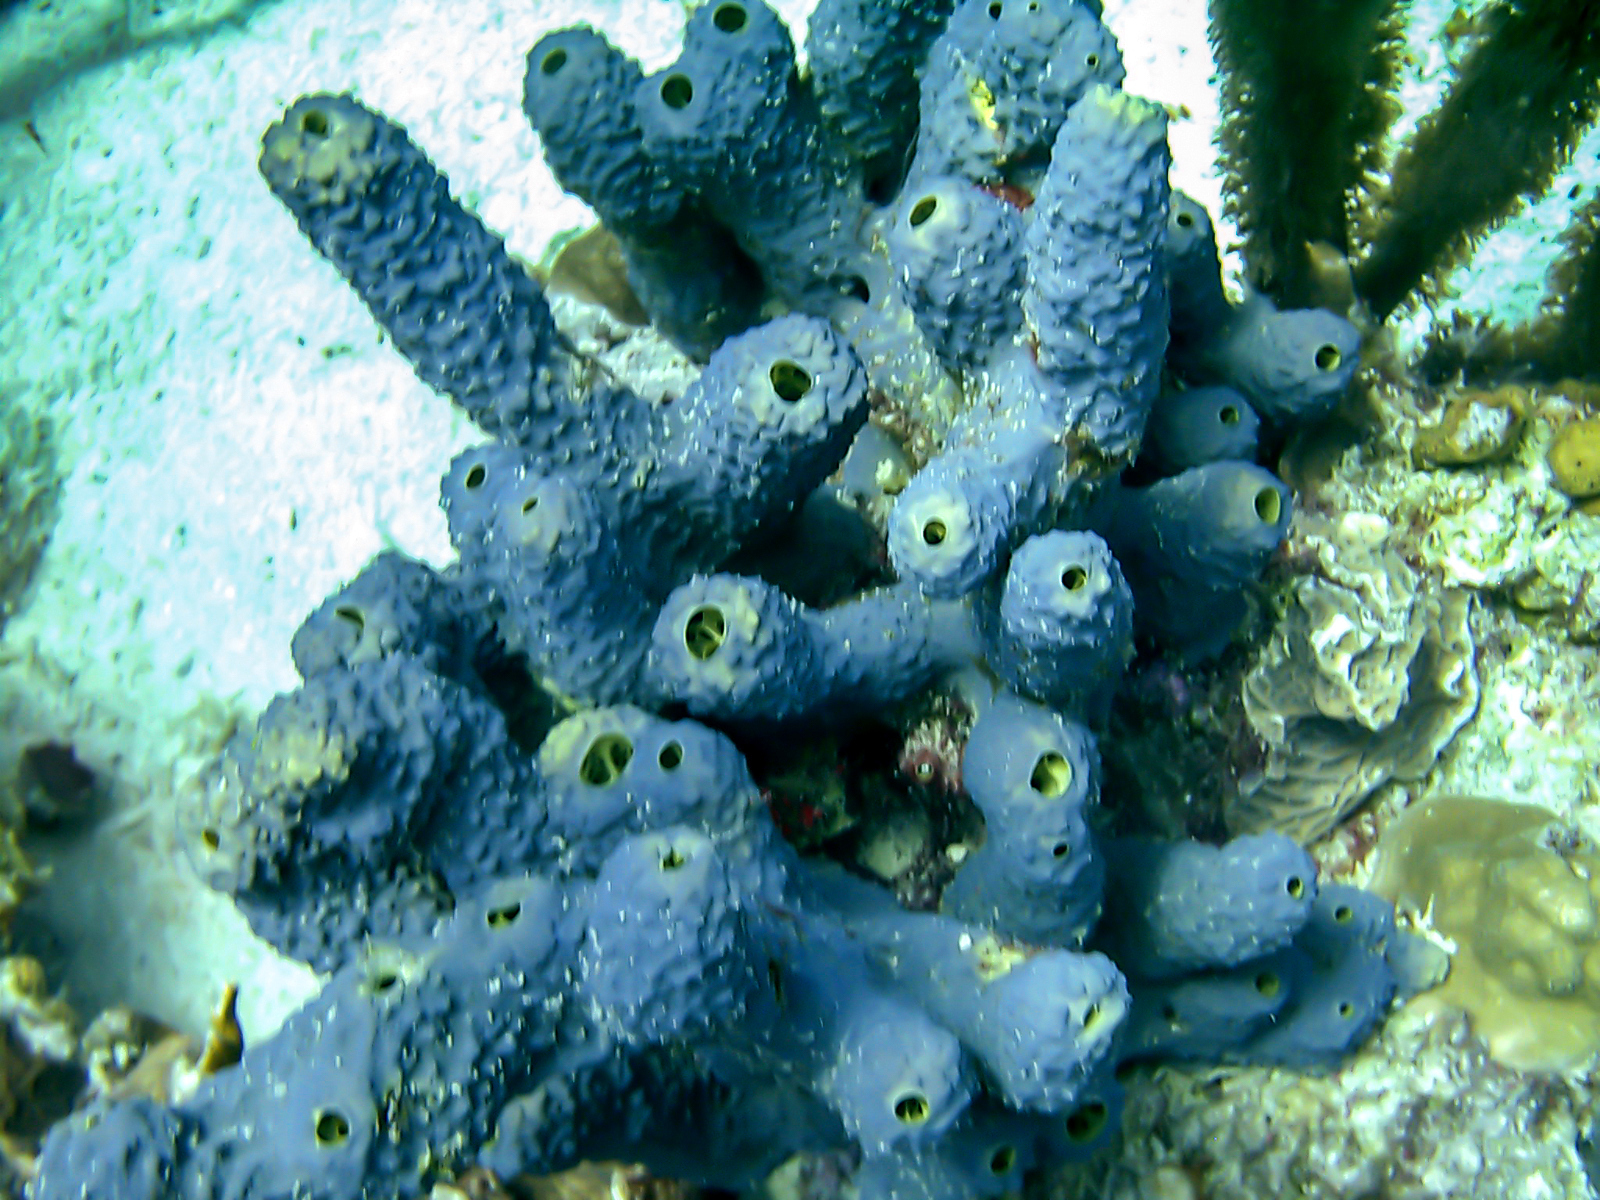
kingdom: Animalia
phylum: Porifera
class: Demospongiae
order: Verongiida
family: Aplysinidae
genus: Aiolochroia
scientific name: Aiolochroia crassa
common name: Branching tube sponge
